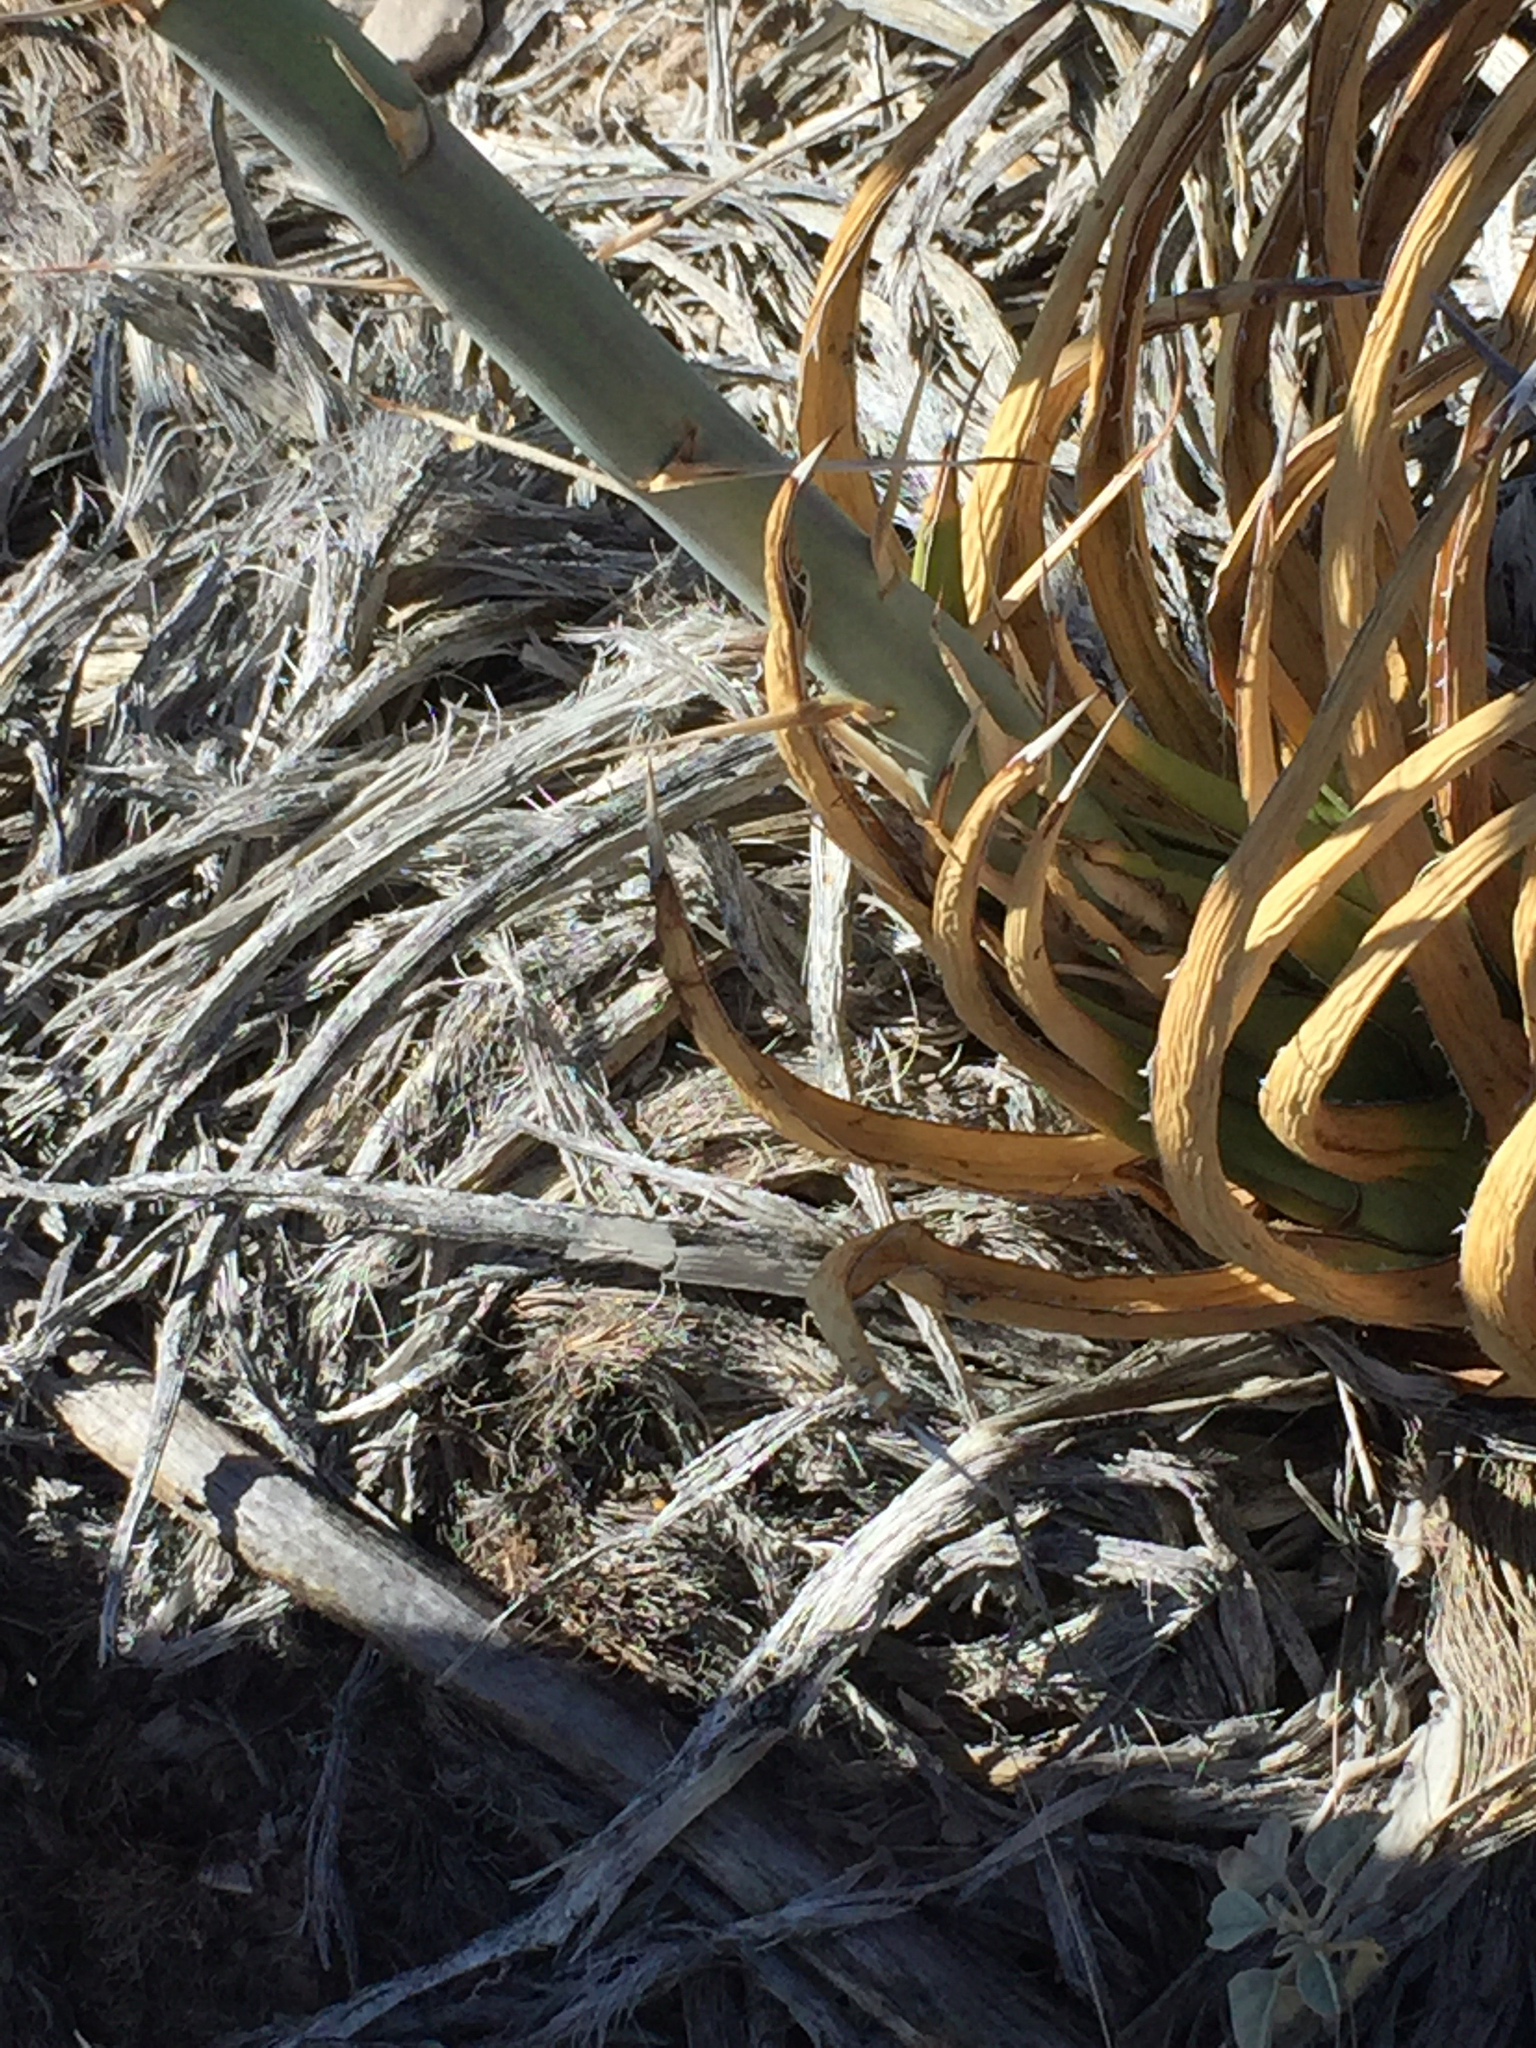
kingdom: Plantae
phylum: Tracheophyta
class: Liliopsida
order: Asparagales
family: Asparagaceae
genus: Agave
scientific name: Agave lechuguilla
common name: Lecheguilla agave
